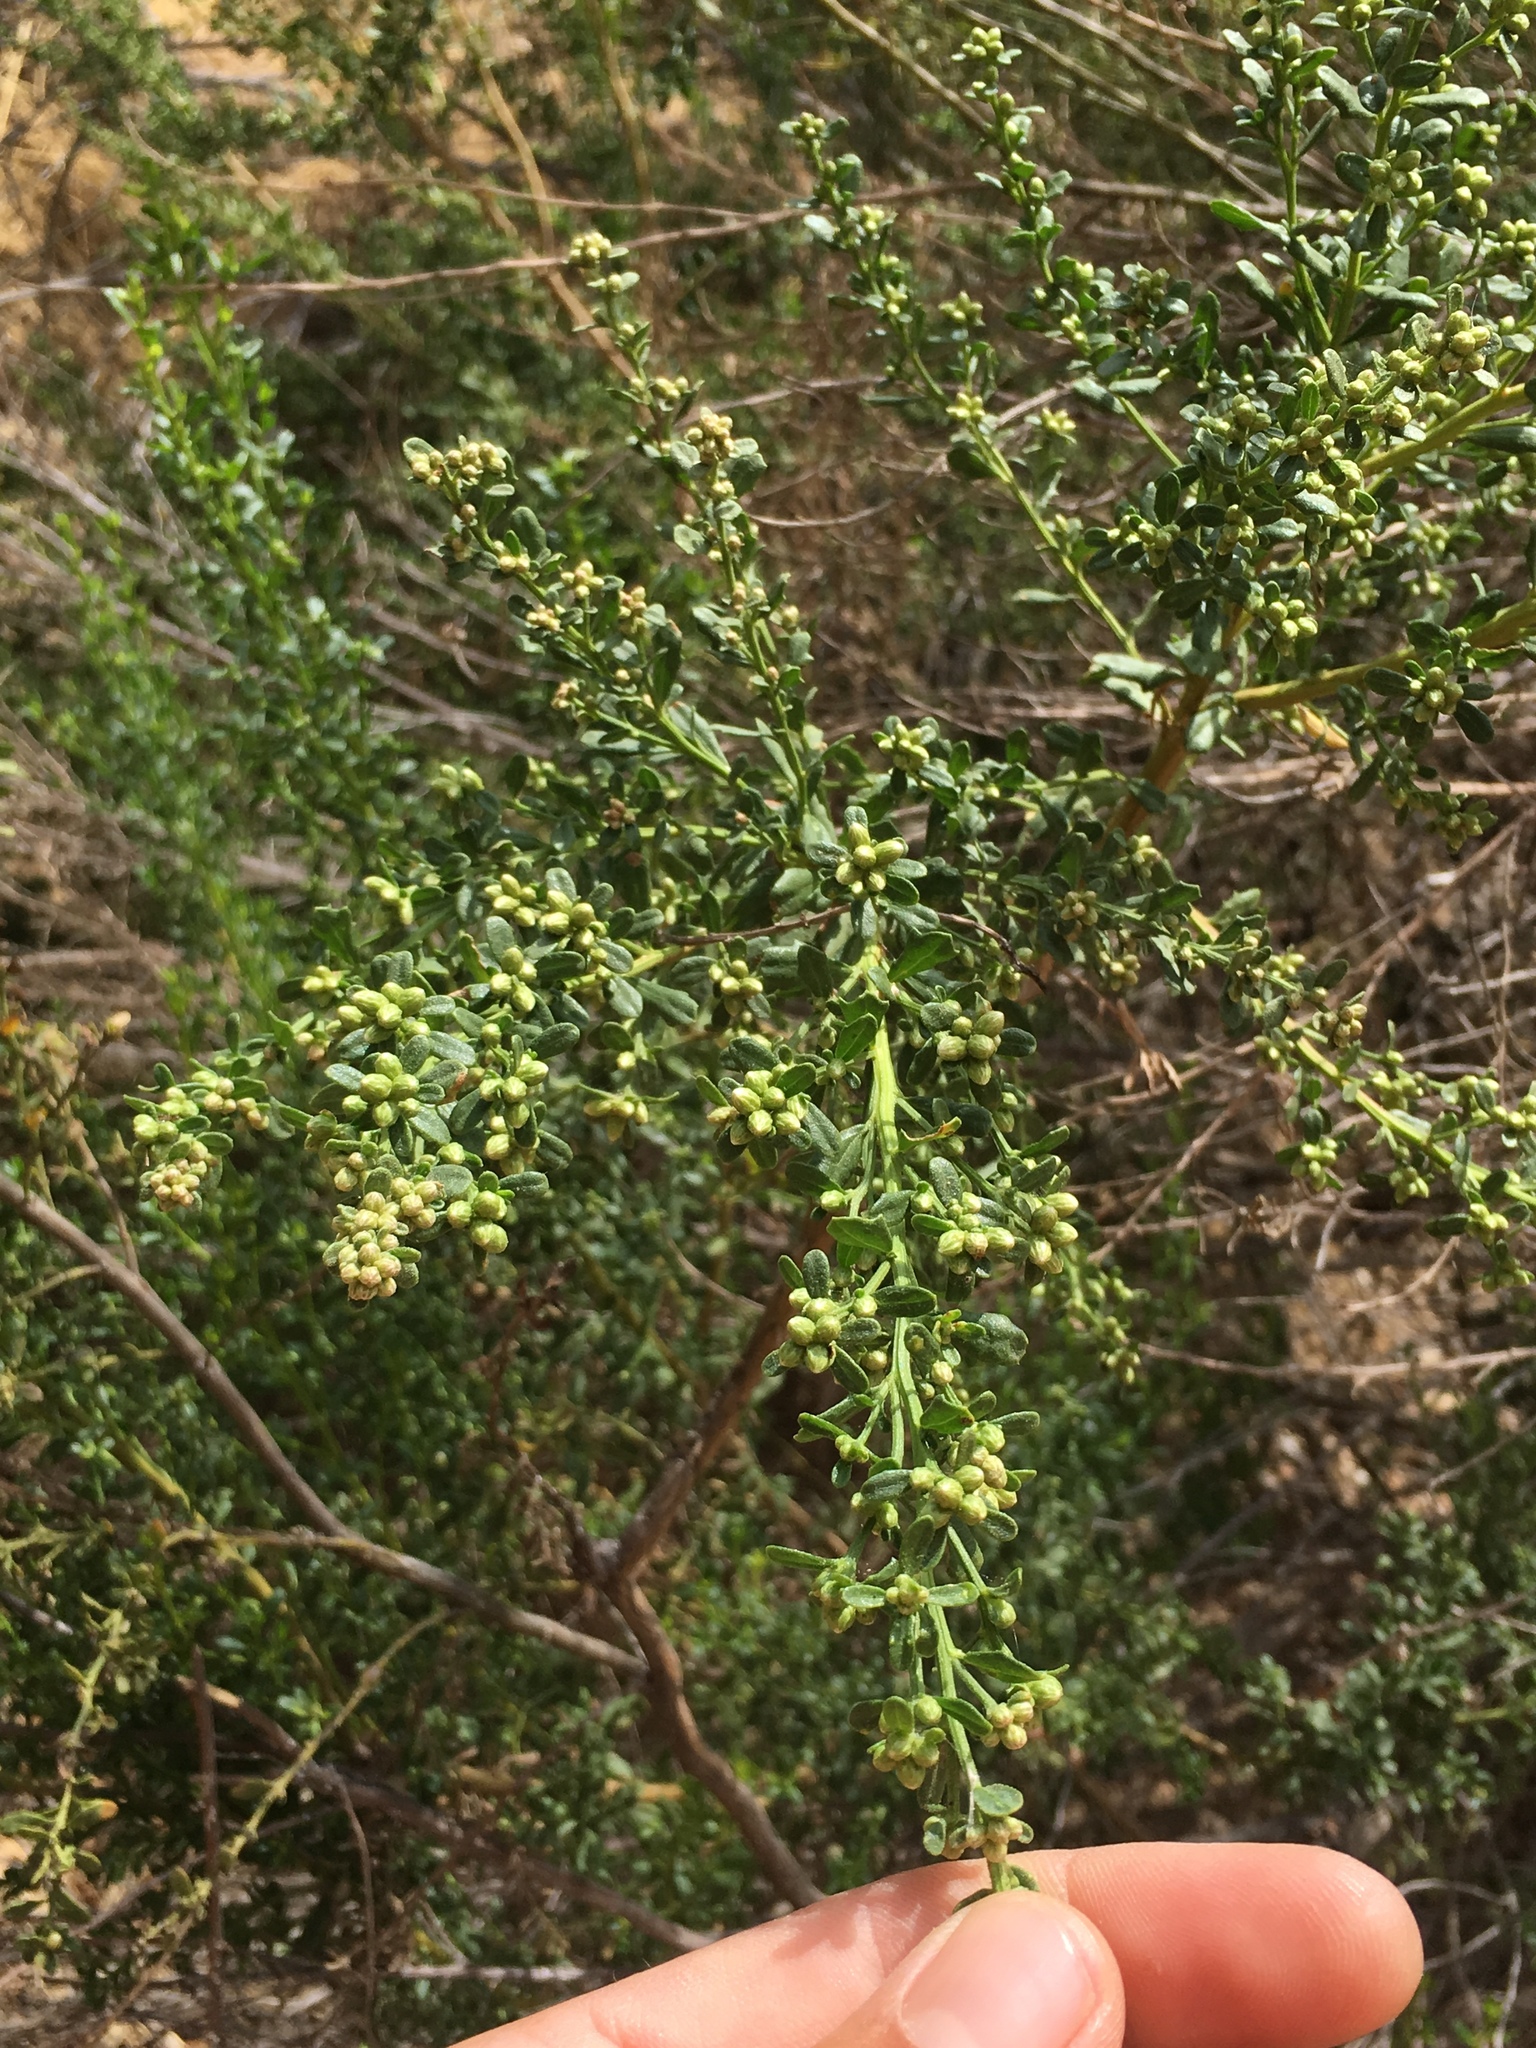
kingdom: Plantae
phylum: Tracheophyta
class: Magnoliopsida
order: Asterales
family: Asteraceae
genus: Baccharis
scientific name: Baccharis pilularis
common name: Coyotebrush
